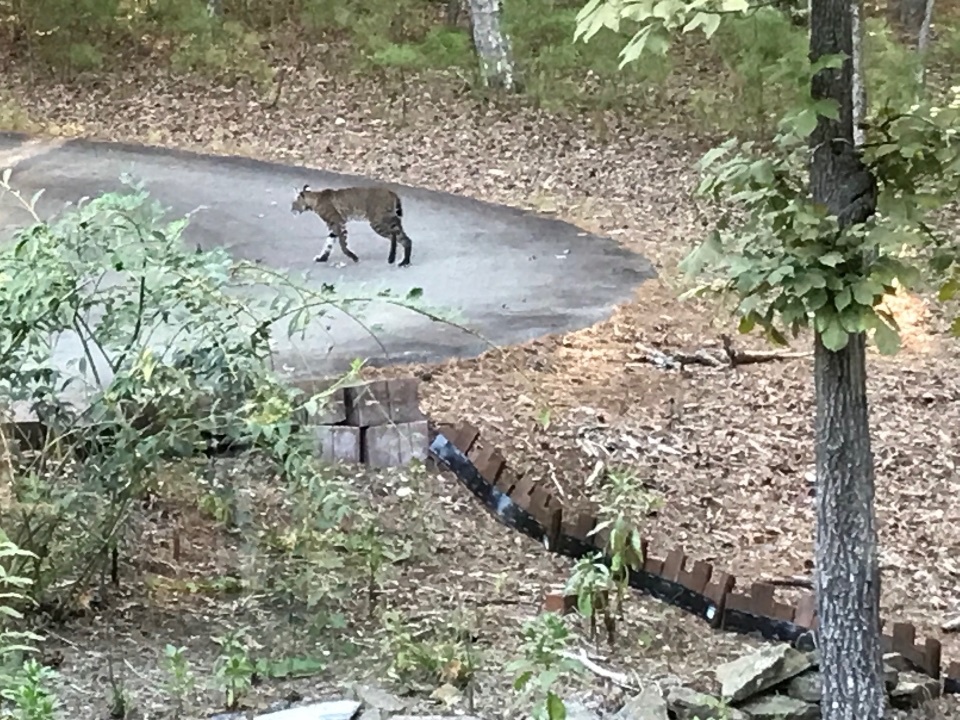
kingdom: Animalia
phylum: Chordata
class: Mammalia
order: Carnivora
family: Felidae
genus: Lynx
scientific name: Lynx rufus
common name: Bobcat
